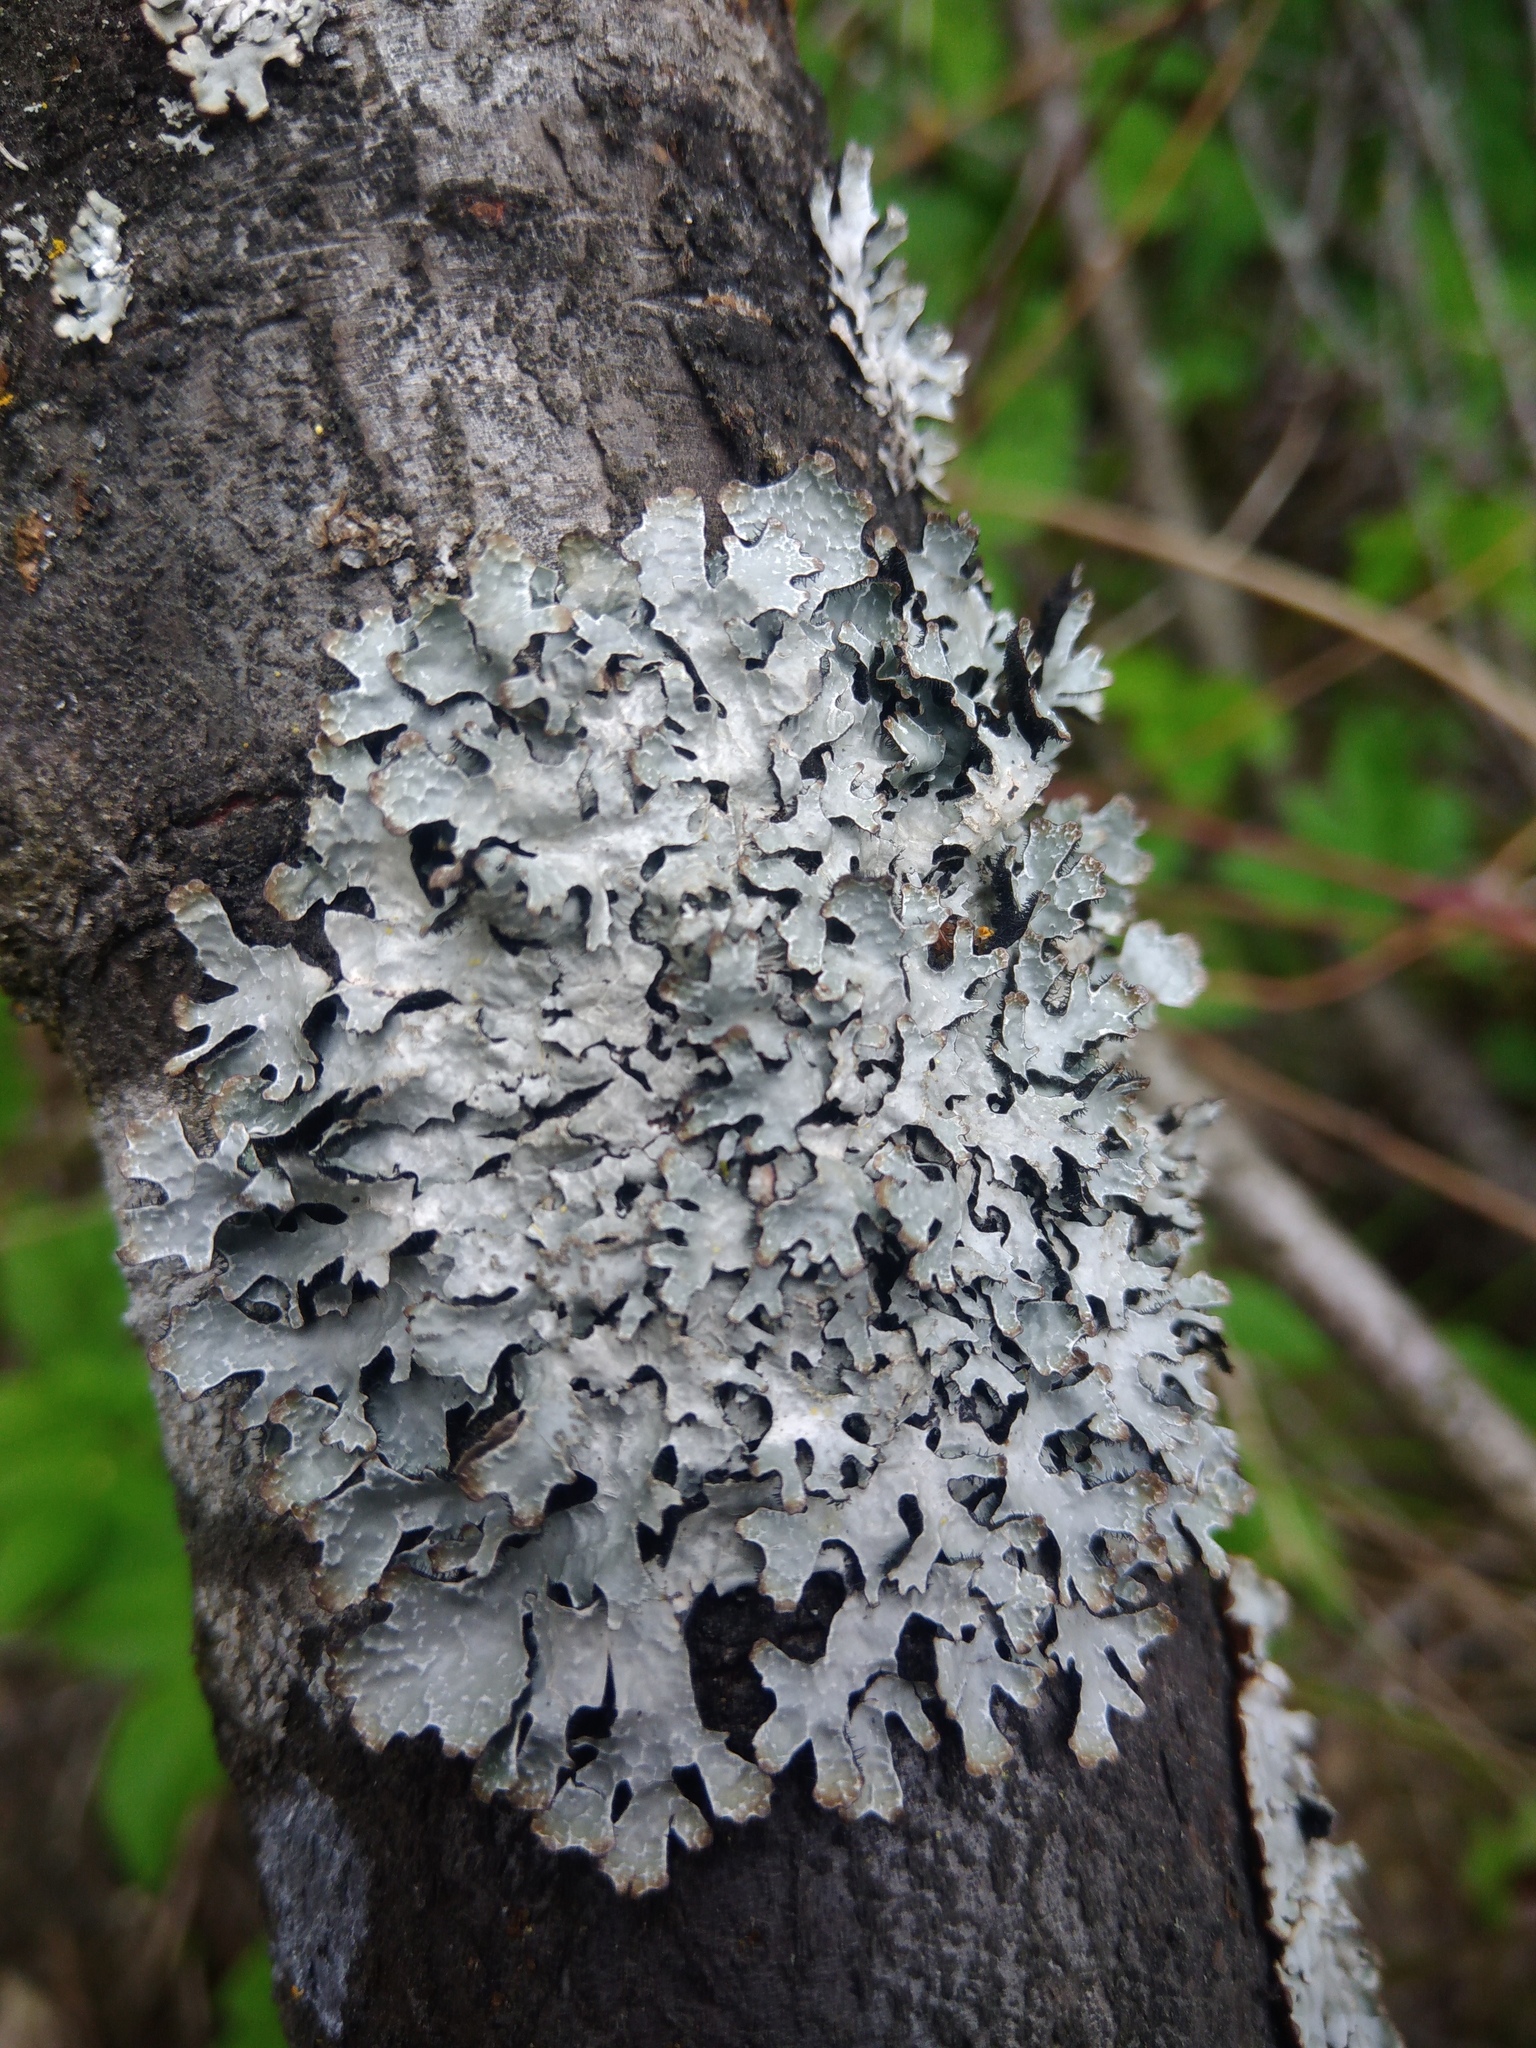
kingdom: Fungi
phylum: Ascomycota
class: Lecanoromycetes
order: Lecanorales
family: Parmeliaceae
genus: Parmelia
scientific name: Parmelia sulcata
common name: Netted shield lichen
